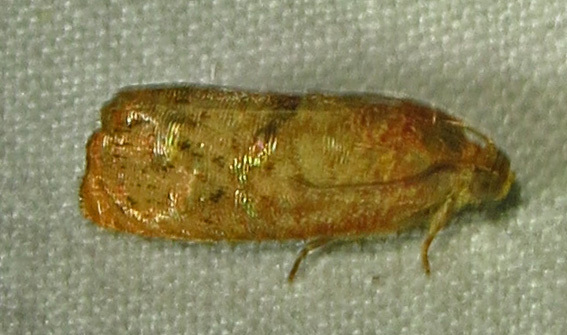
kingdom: Animalia
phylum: Arthropoda
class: Insecta
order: Lepidoptera
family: Tortricidae
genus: Cydia
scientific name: Cydia latiferreana
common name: Filbertworm moth
